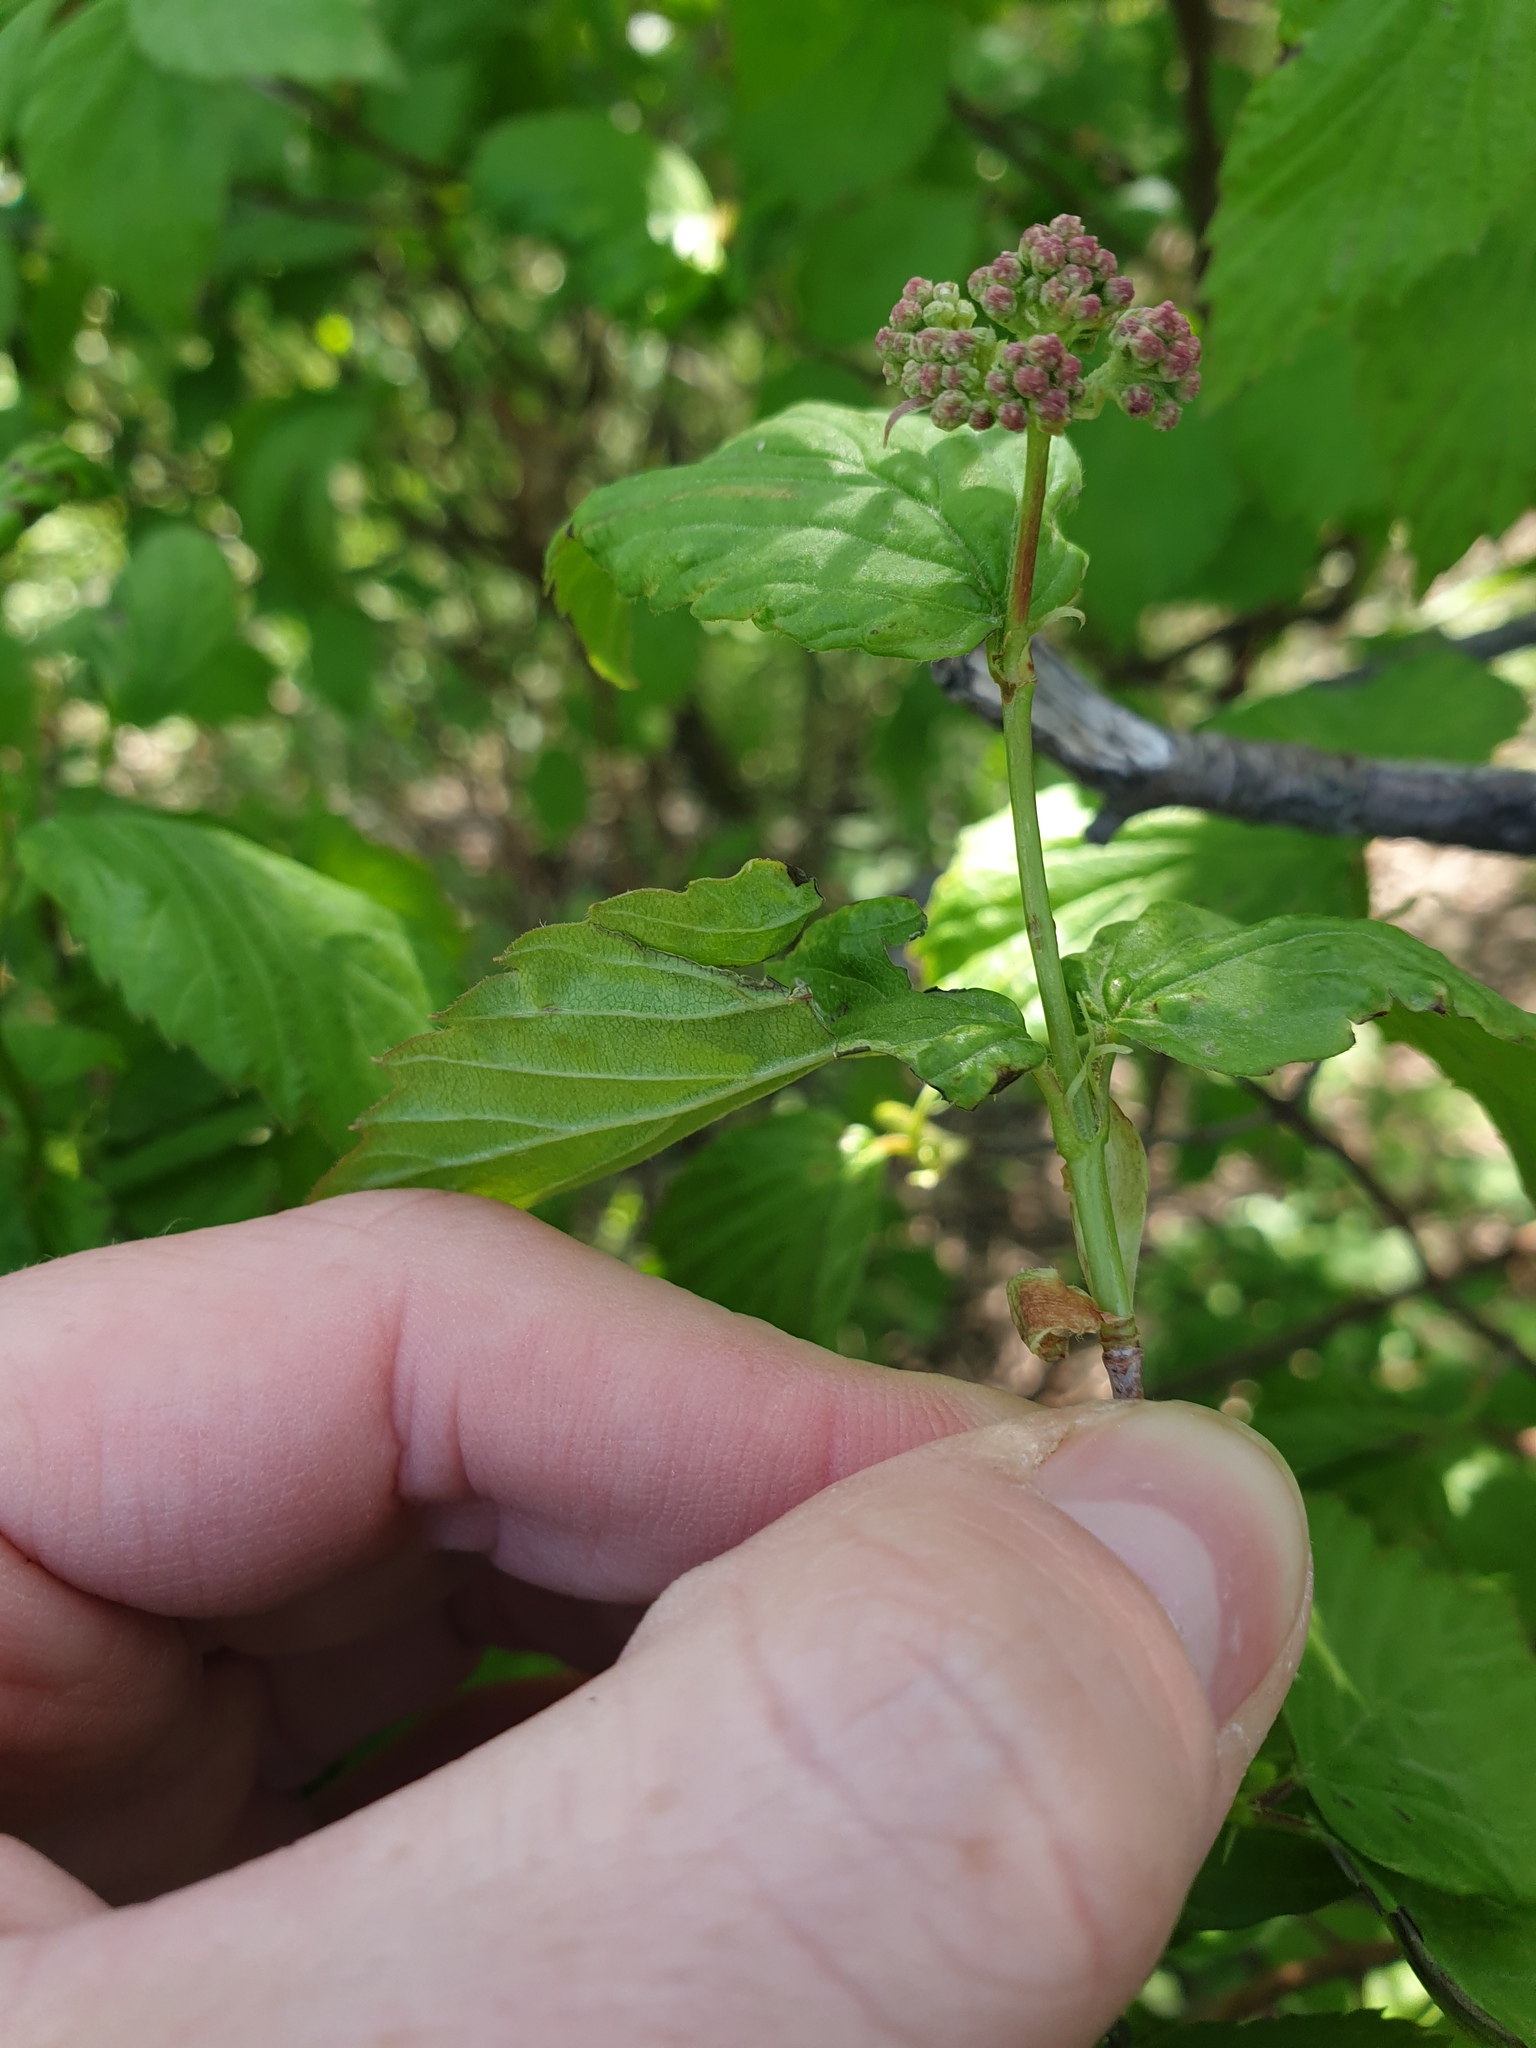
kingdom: Plantae
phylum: Tracheophyta
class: Magnoliopsida
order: Dipsacales
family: Viburnaceae
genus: Viburnum
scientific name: Viburnum rafinesqueanum
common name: Downy arrow-wood
